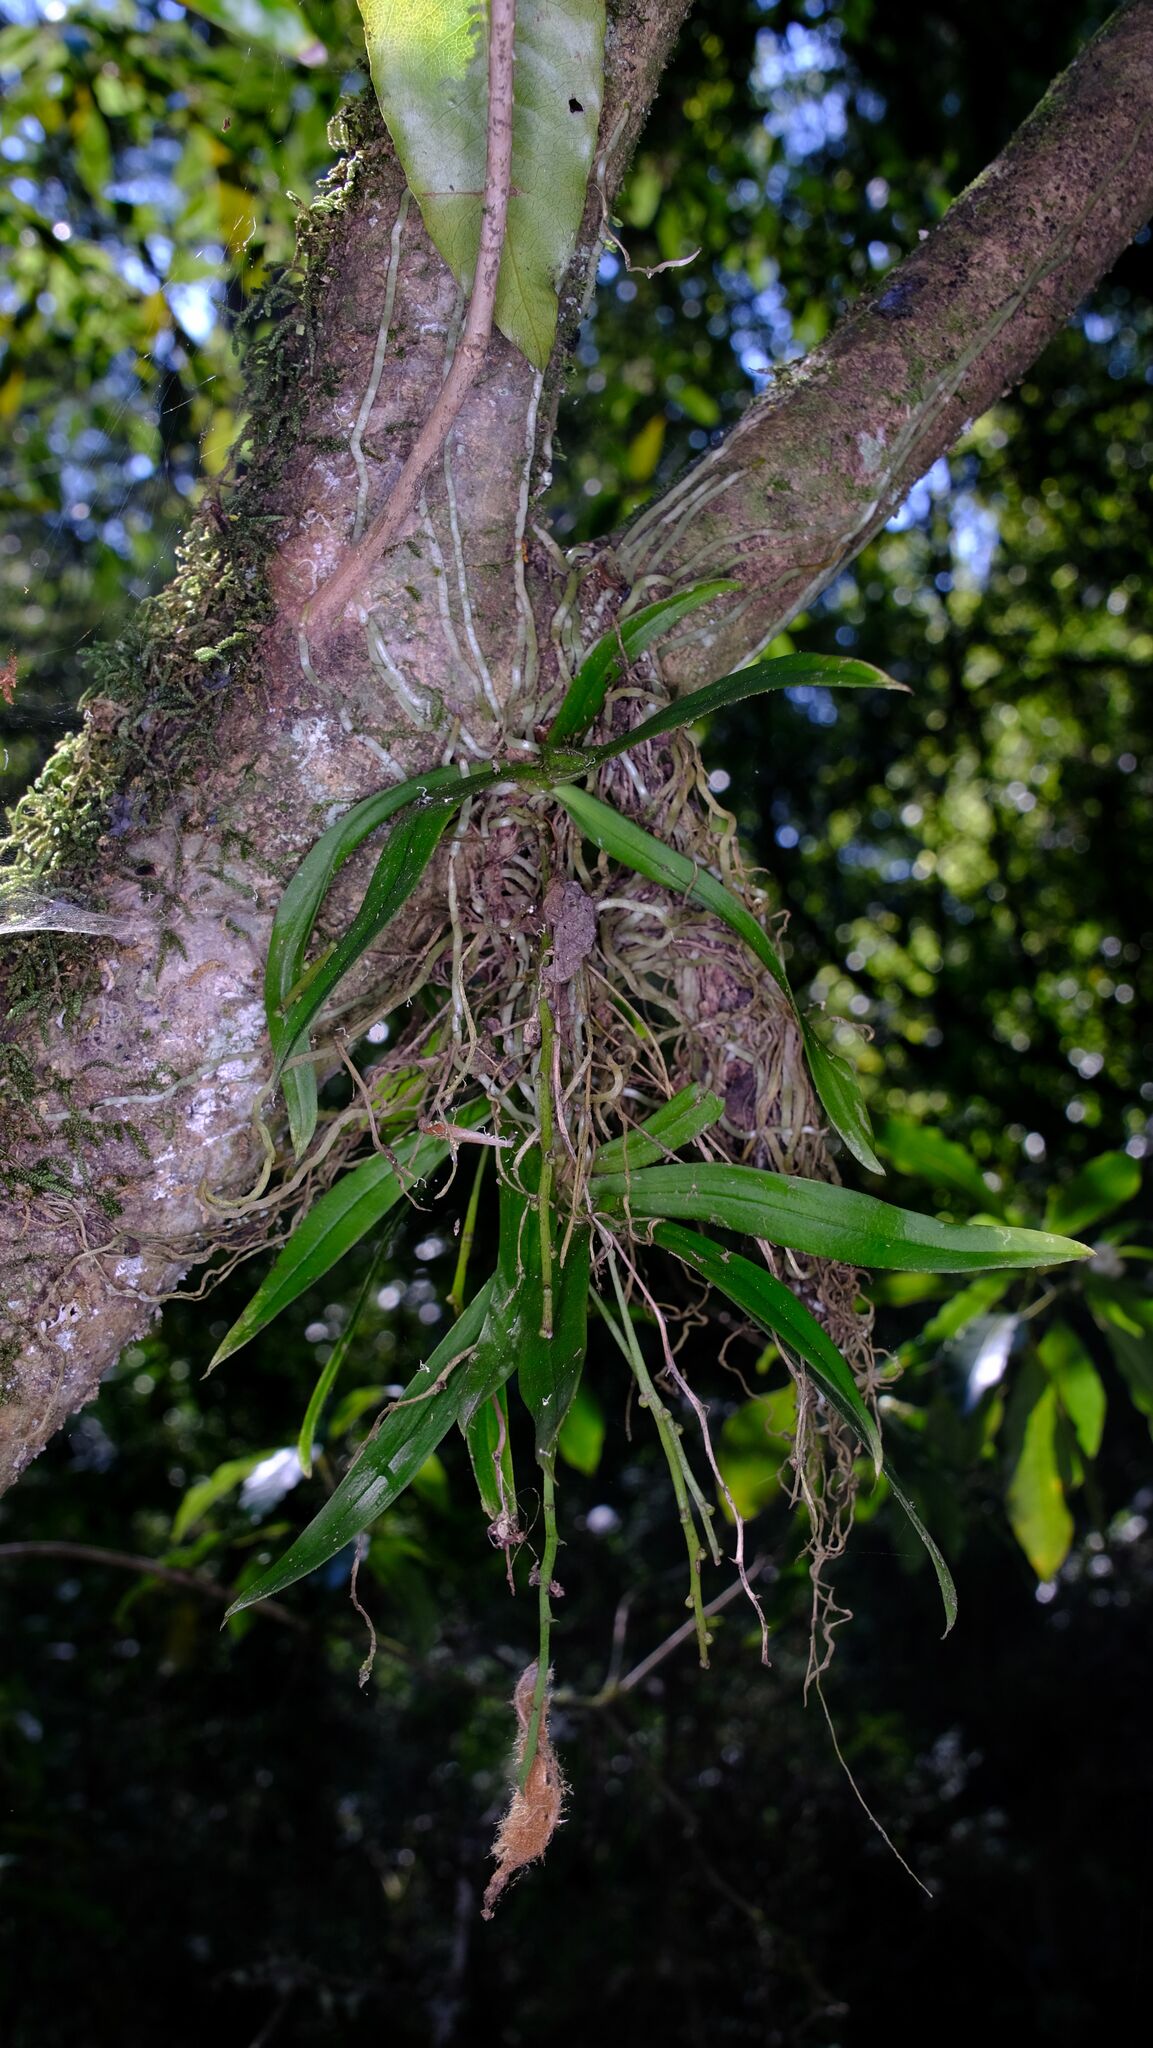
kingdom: Plantae
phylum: Tracheophyta
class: Liliopsida
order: Asparagales
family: Orchidaceae
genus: Sarcochilus
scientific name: Sarcochilus australis
